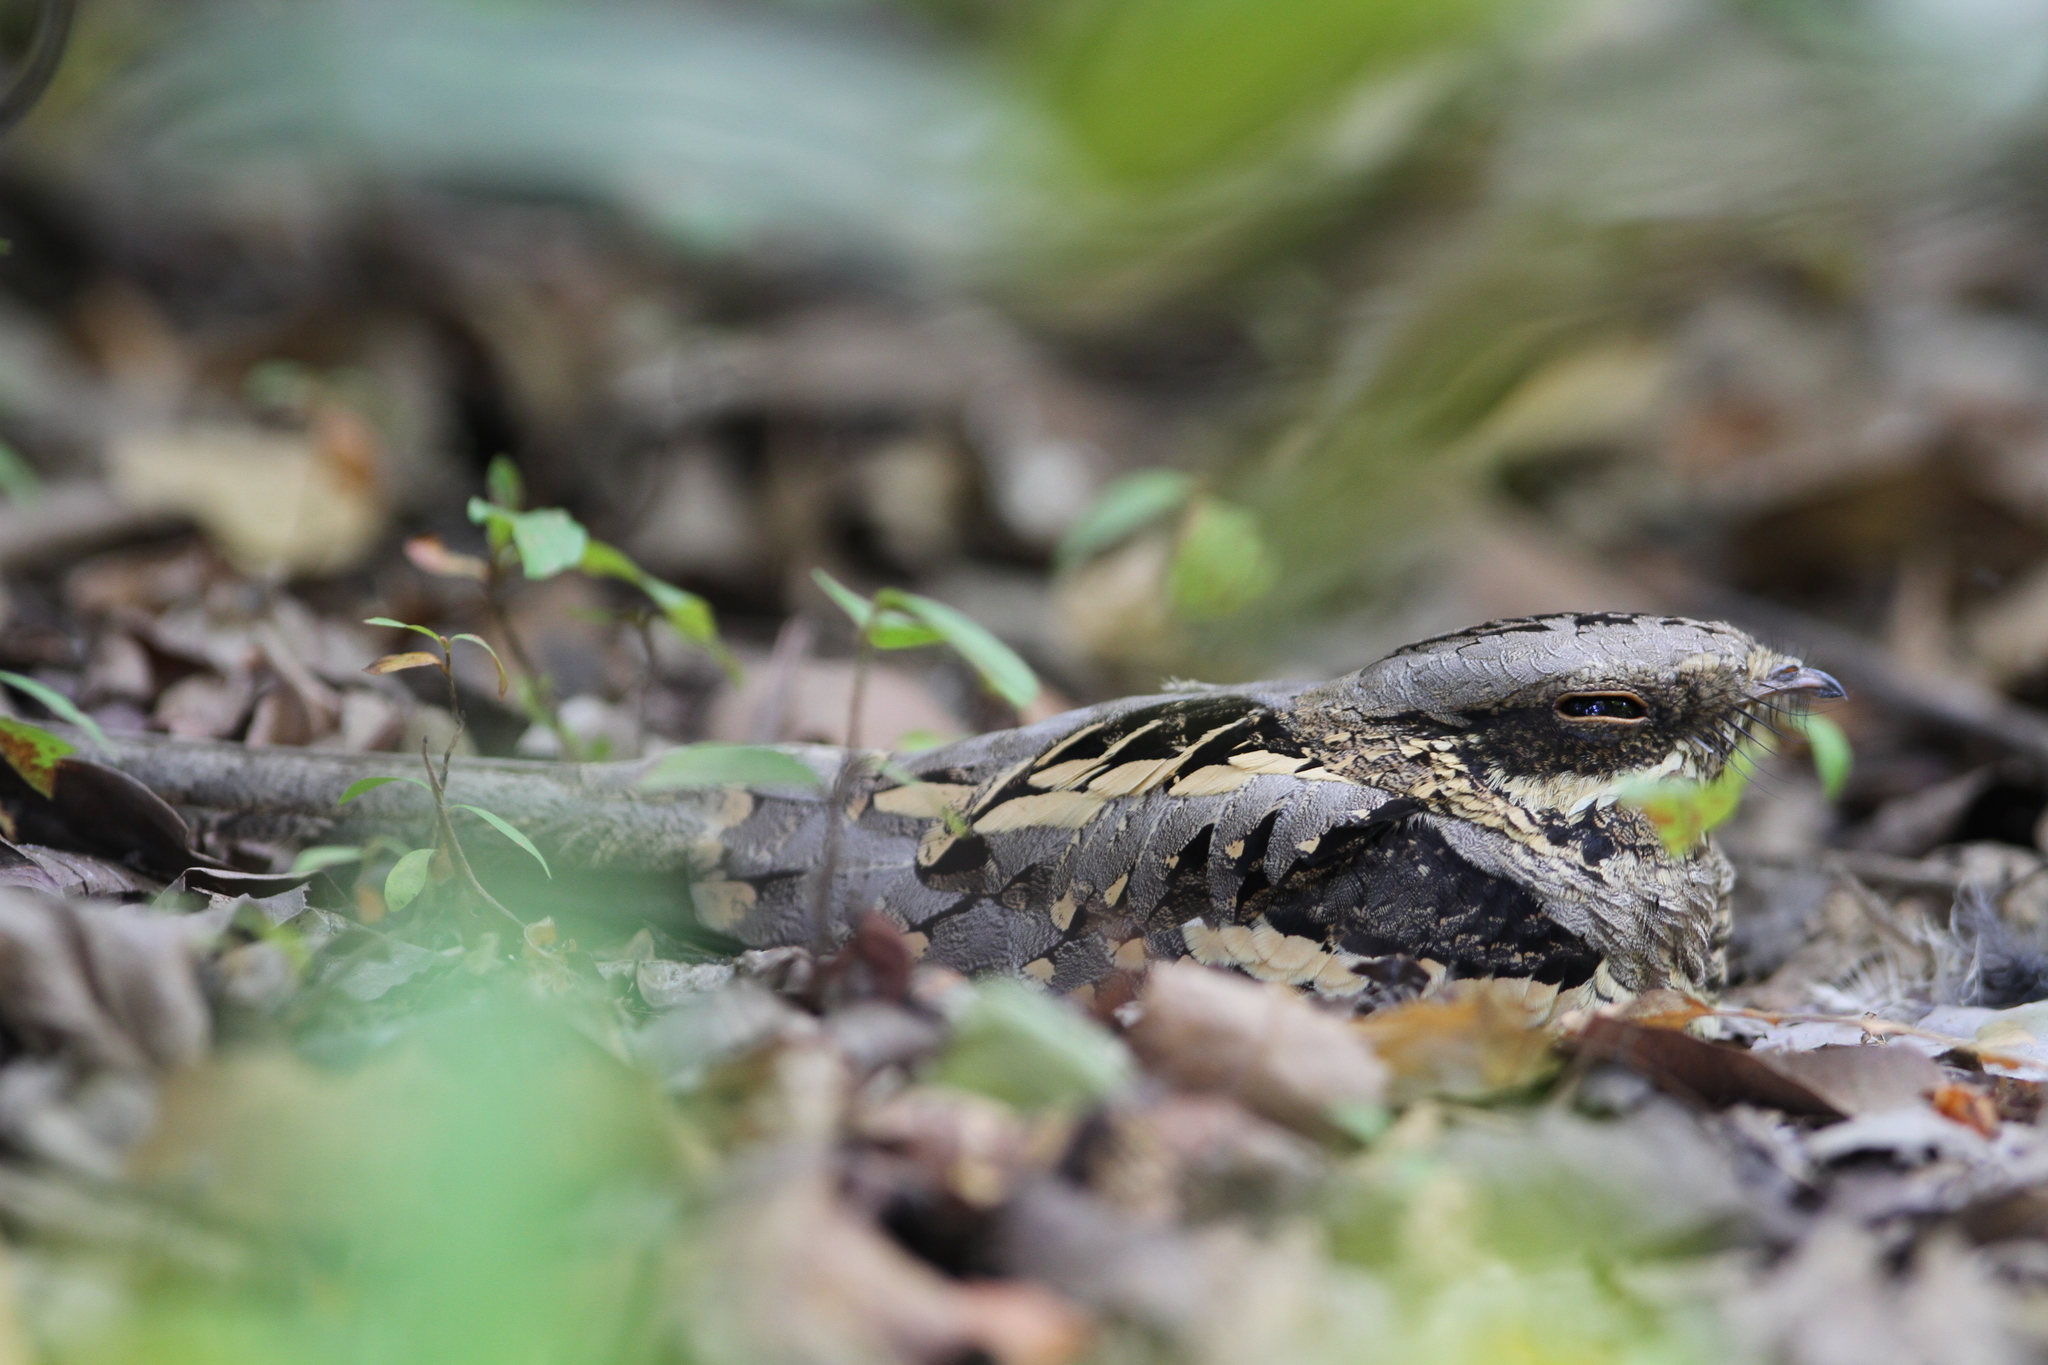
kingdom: Animalia
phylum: Chordata
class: Aves
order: Caprimulgiformes
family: Caprimulgidae
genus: Caprimulgus
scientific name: Caprimulgus climacurus
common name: Long-tailed nightjar
